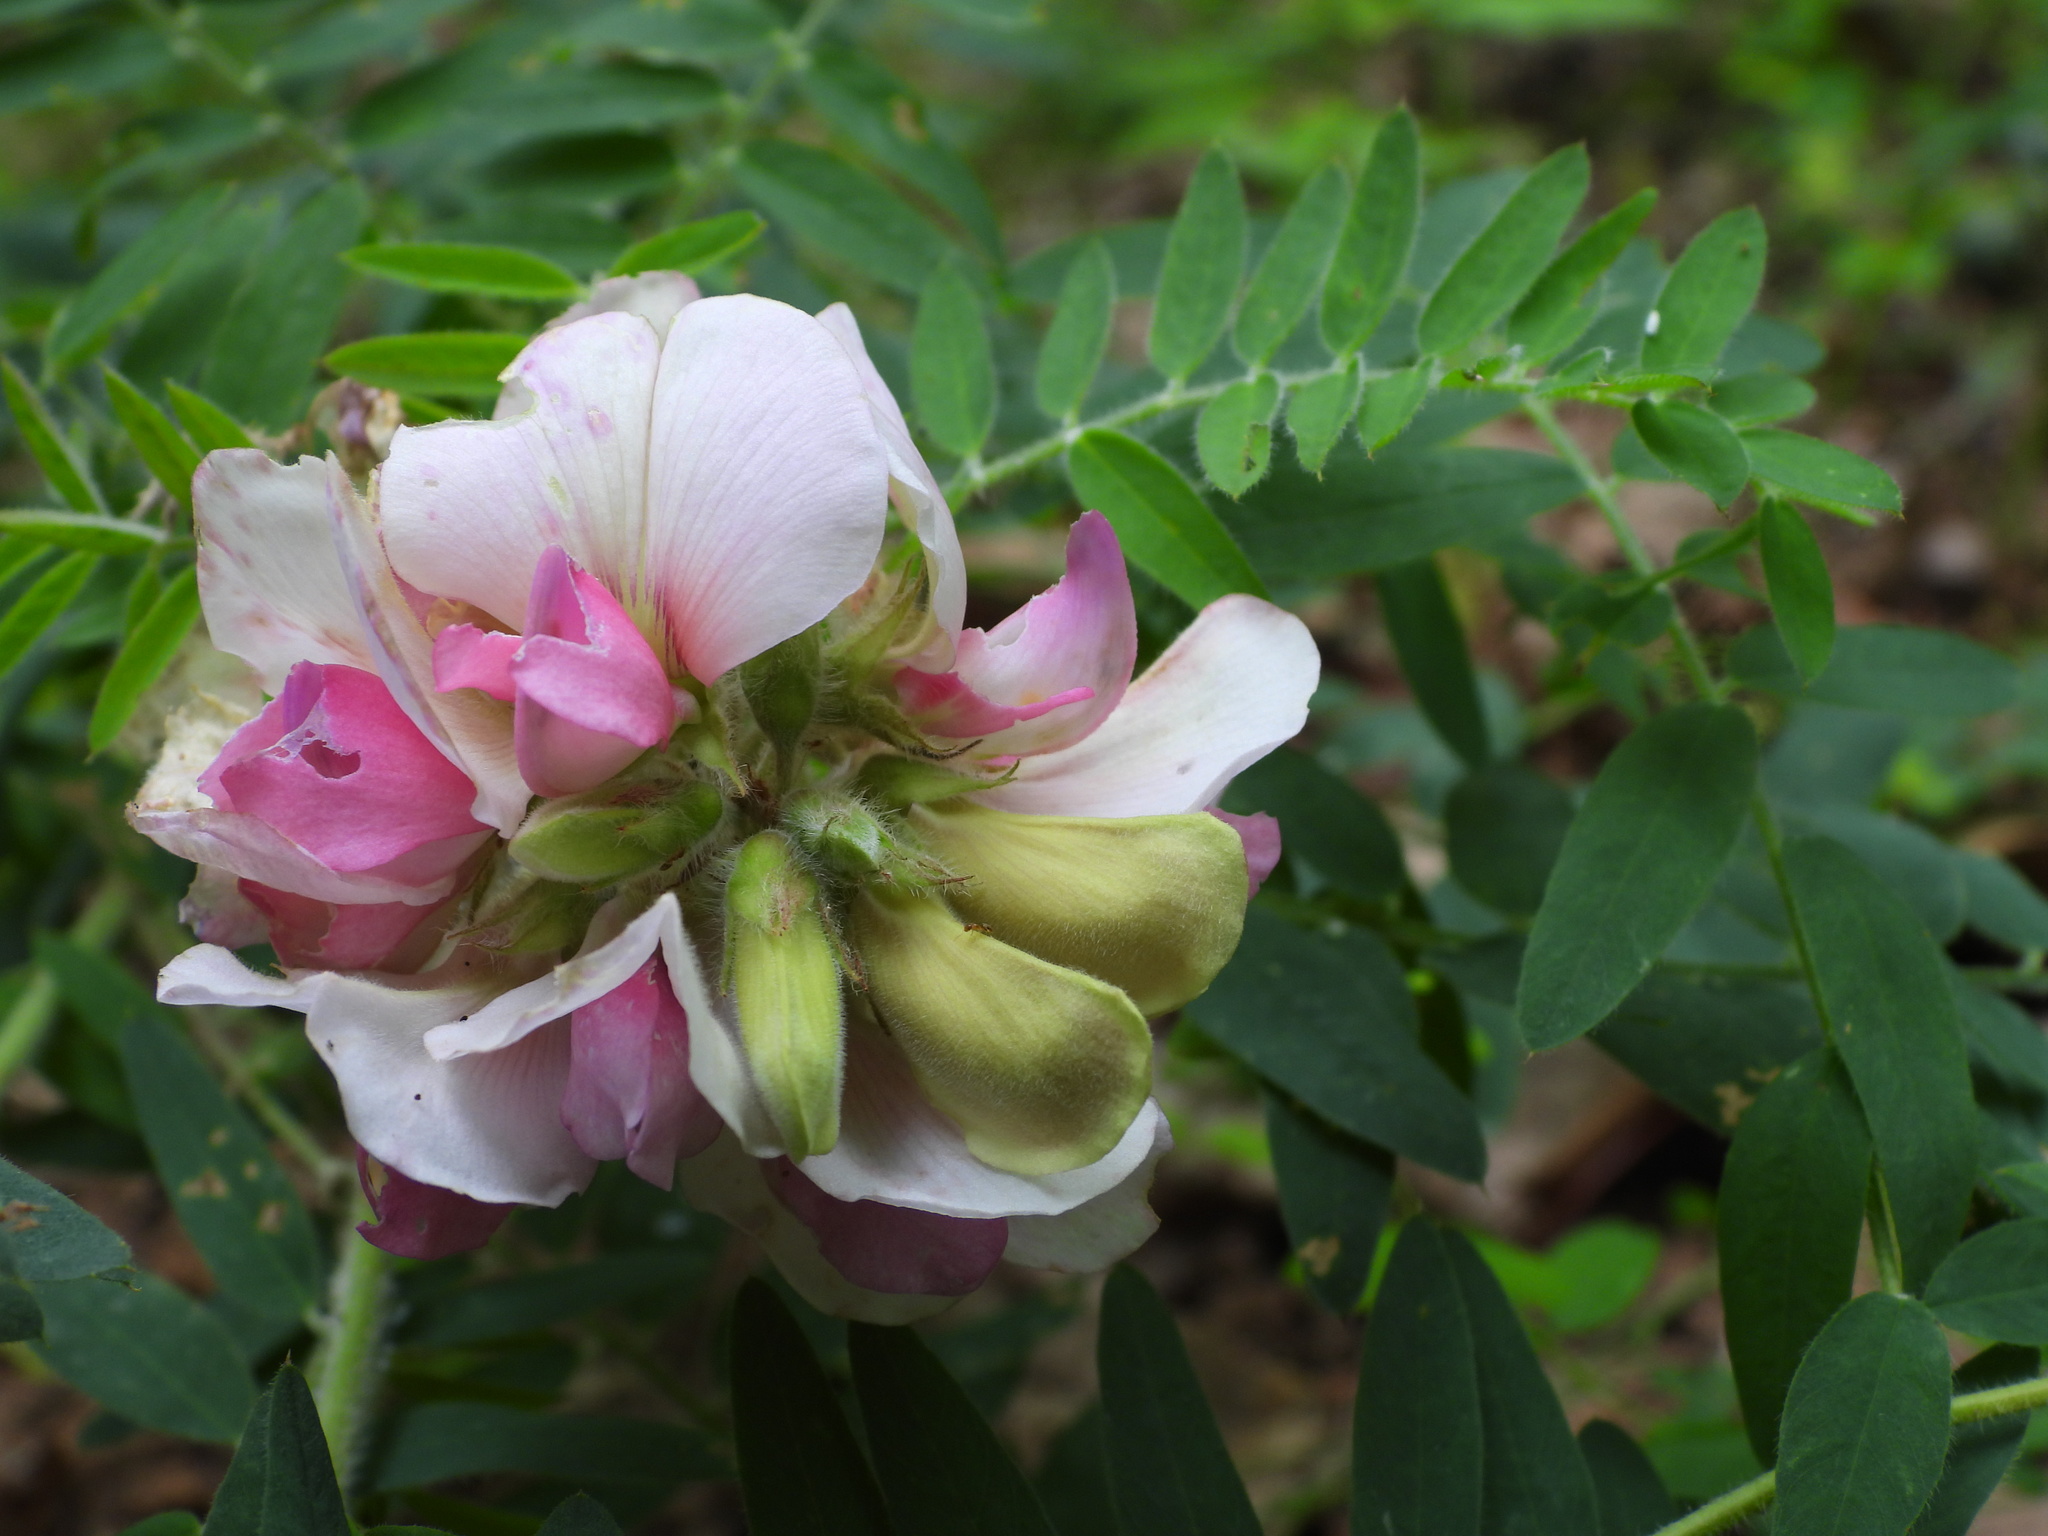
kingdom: Plantae
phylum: Tracheophyta
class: Magnoliopsida
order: Fabales
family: Fabaceae
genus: Tephrosia
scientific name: Tephrosia virginiana
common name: Rabbit-pea
